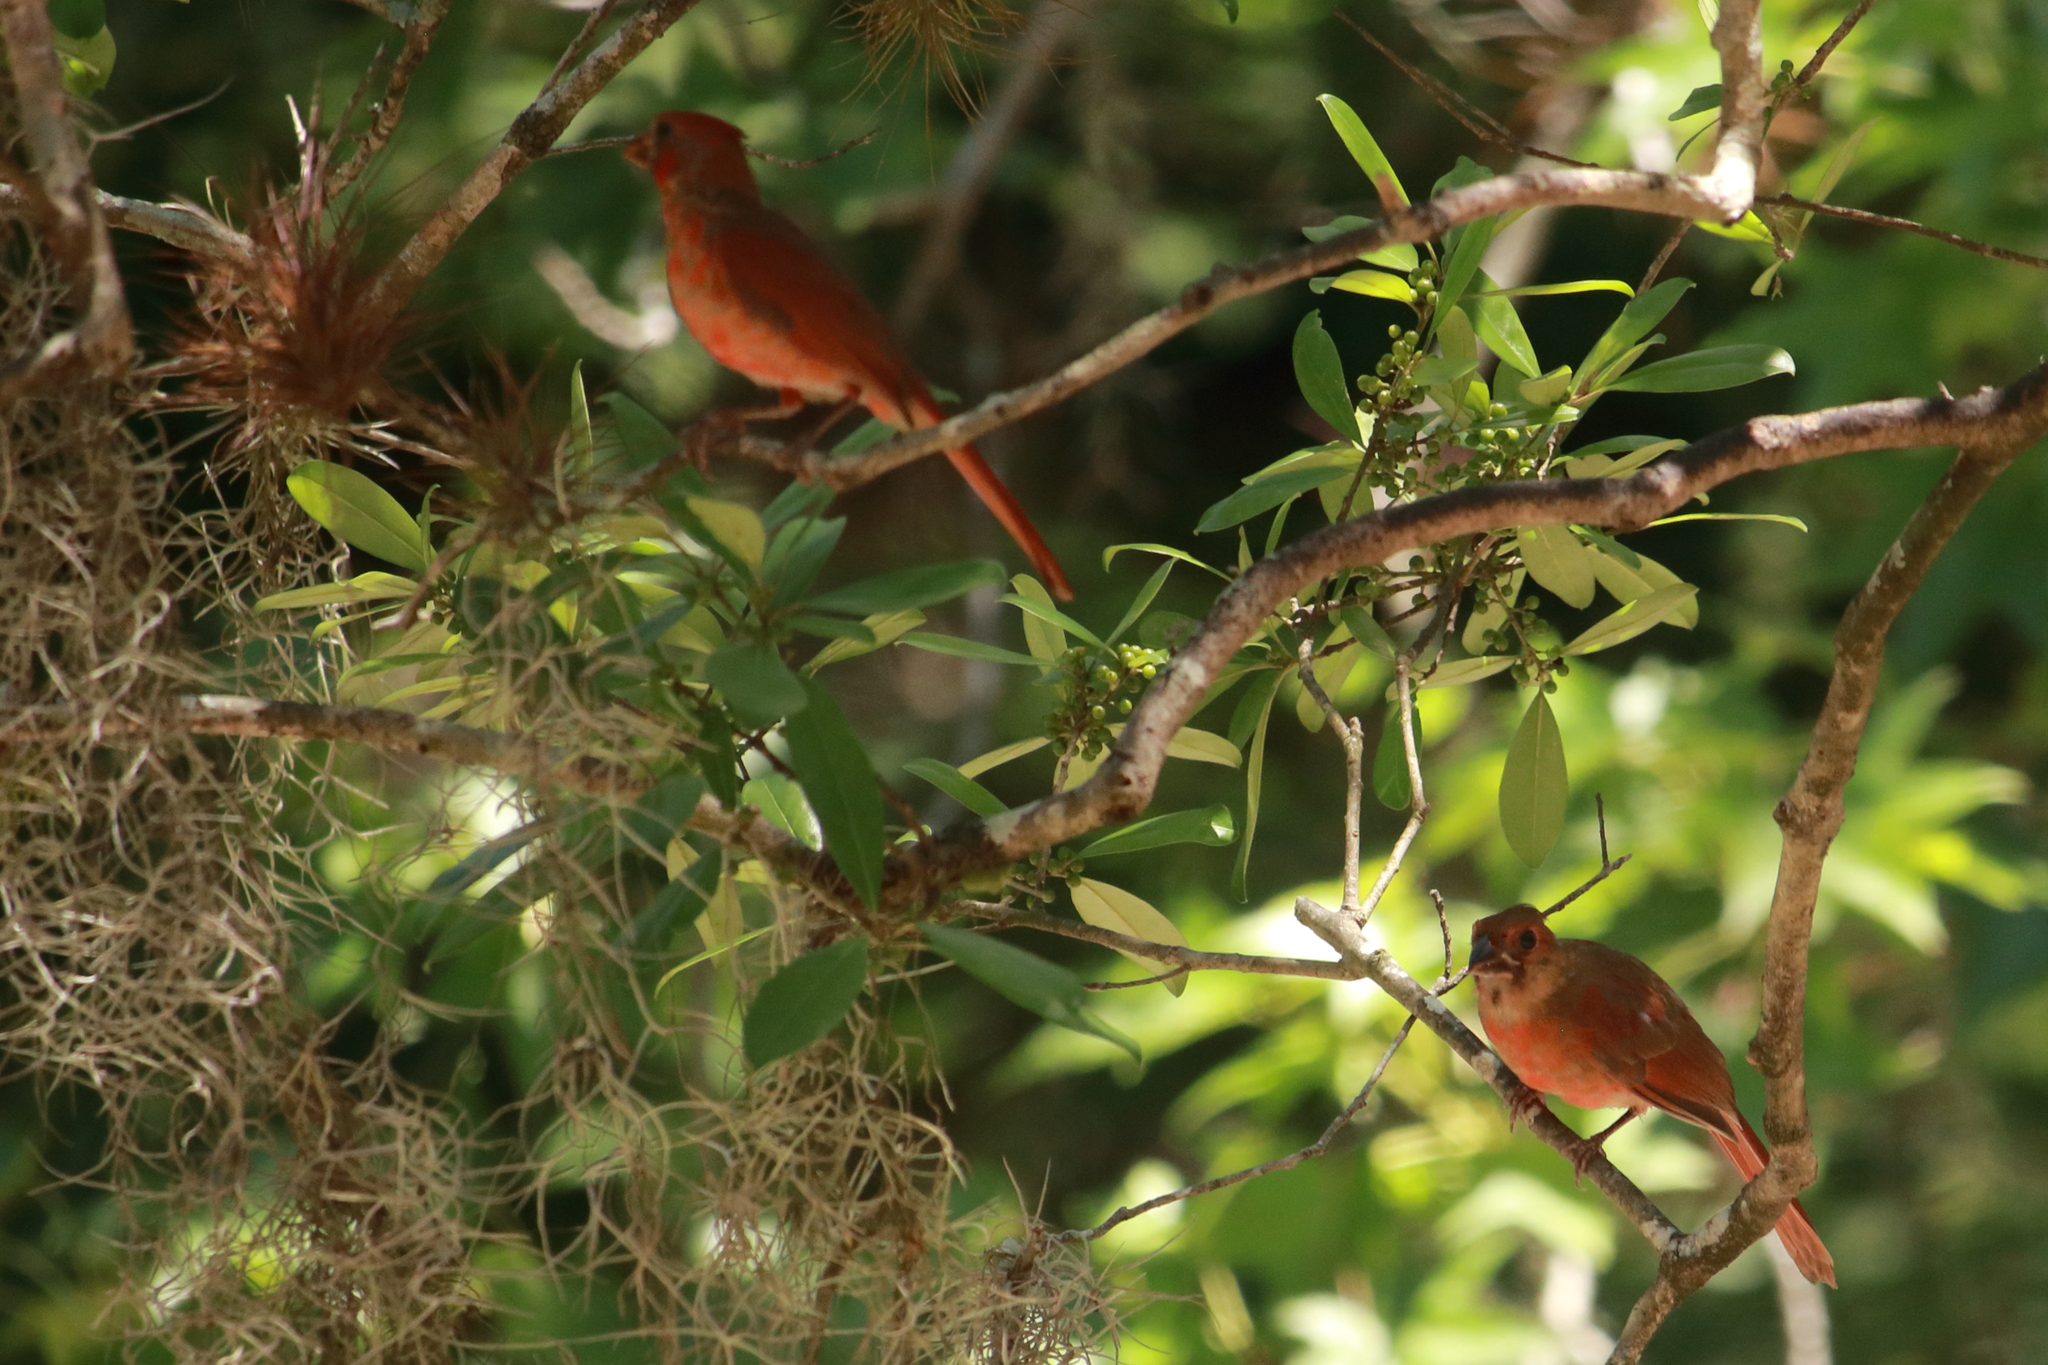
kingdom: Animalia
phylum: Chordata
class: Aves
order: Passeriformes
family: Cardinalidae
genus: Cardinalis
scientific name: Cardinalis cardinalis
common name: Northern cardinal
